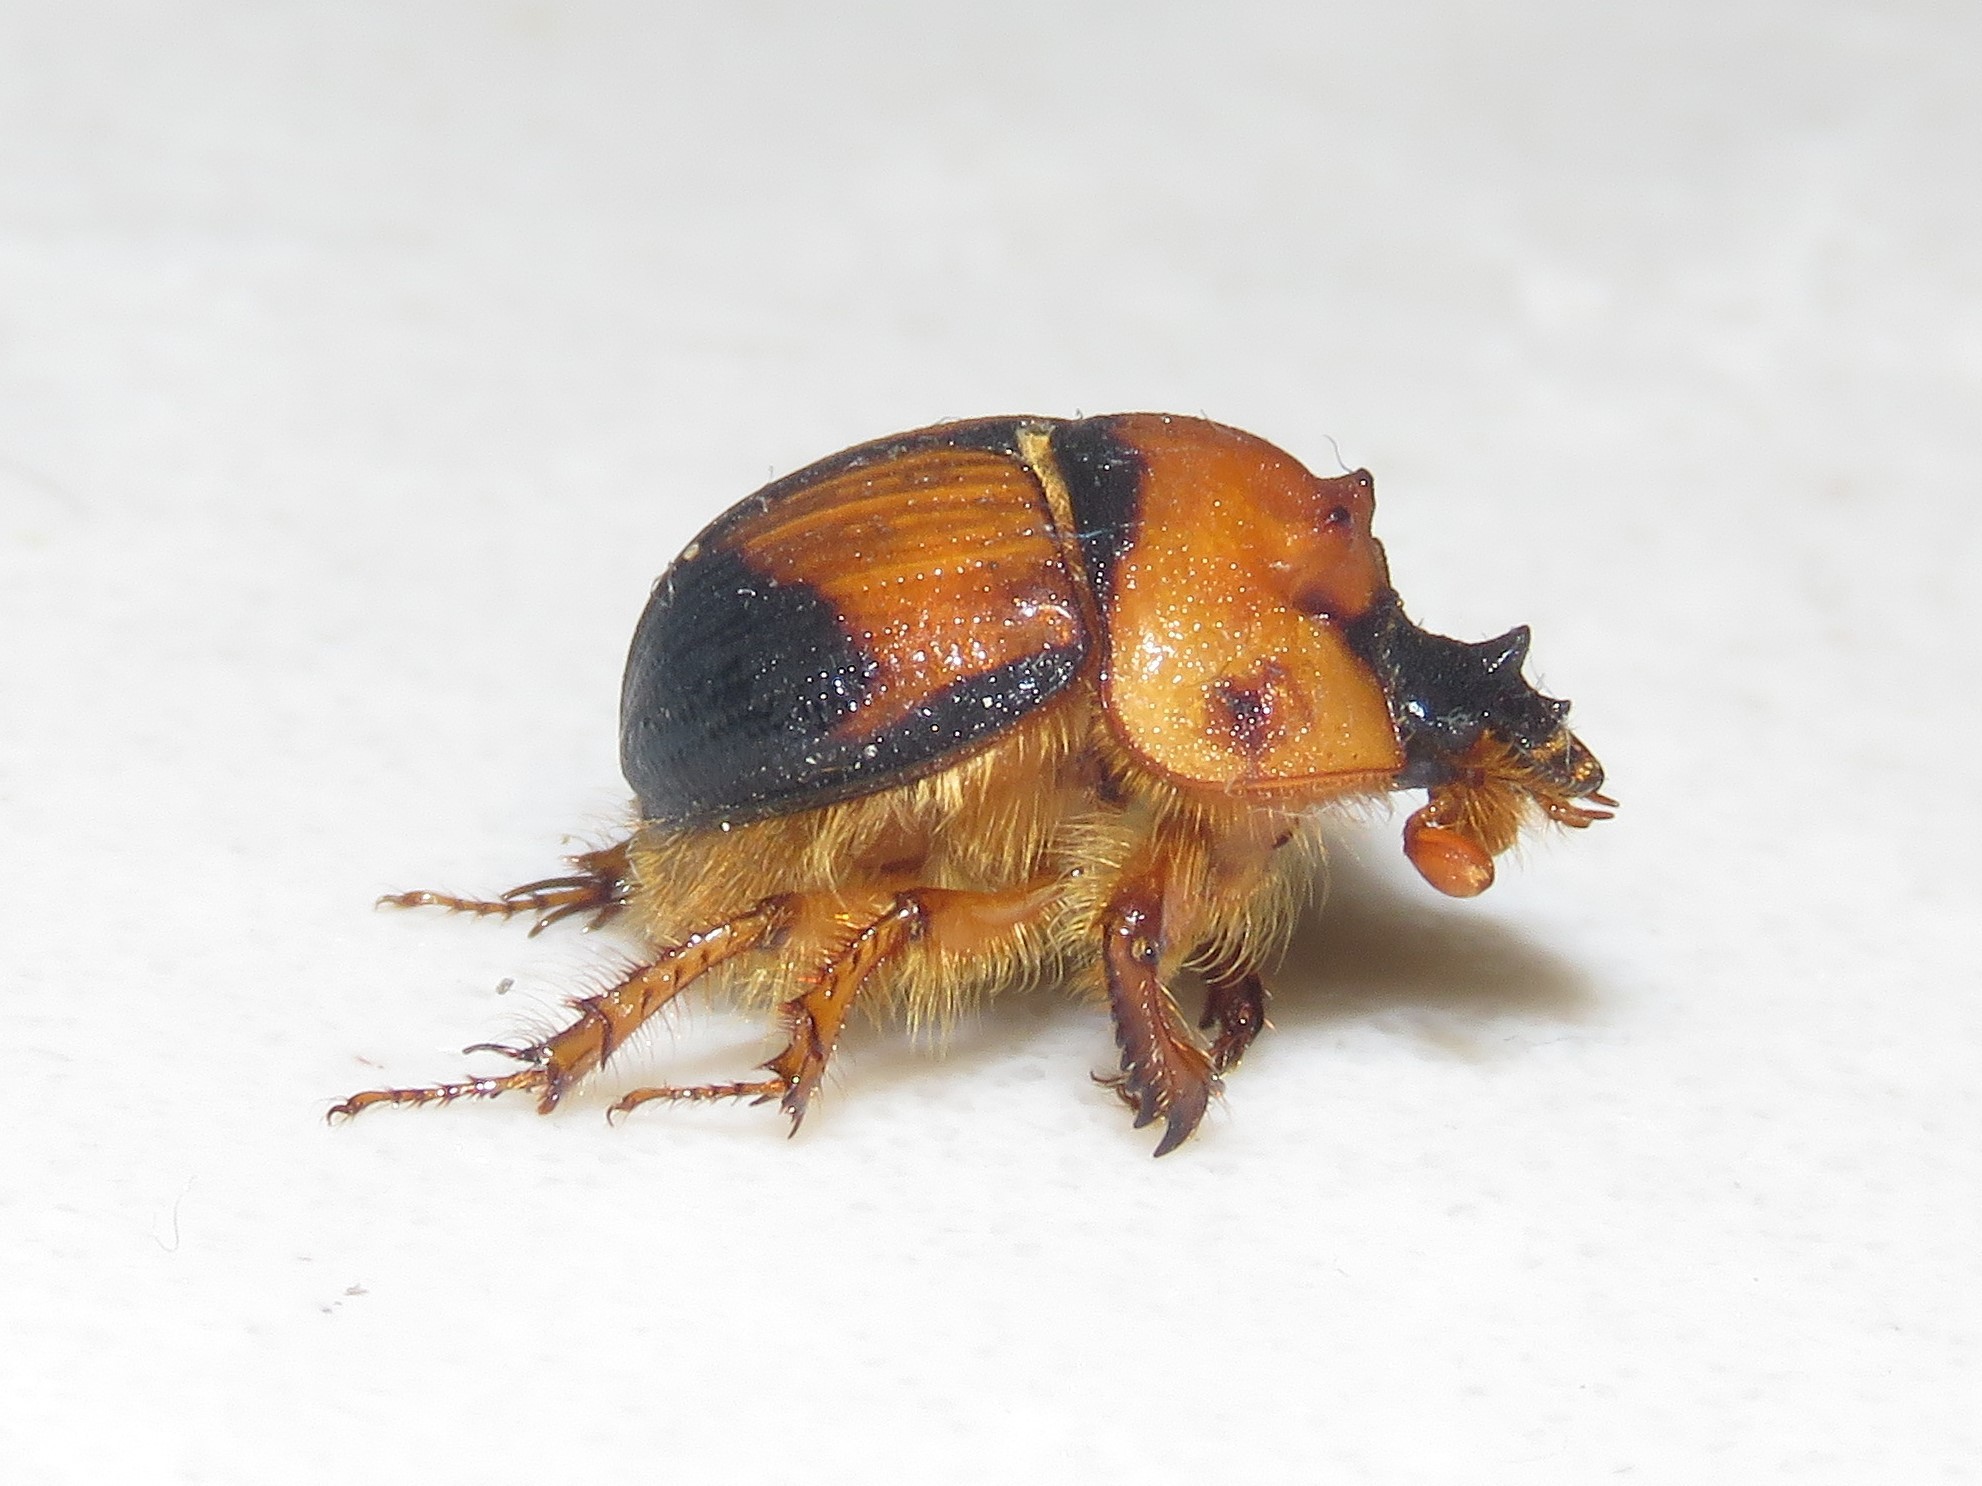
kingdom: Animalia
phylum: Arthropoda
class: Insecta
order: Coleoptera
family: Geotrupidae
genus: Bolbocerosoma
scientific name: Bolbocerosoma bruneri
